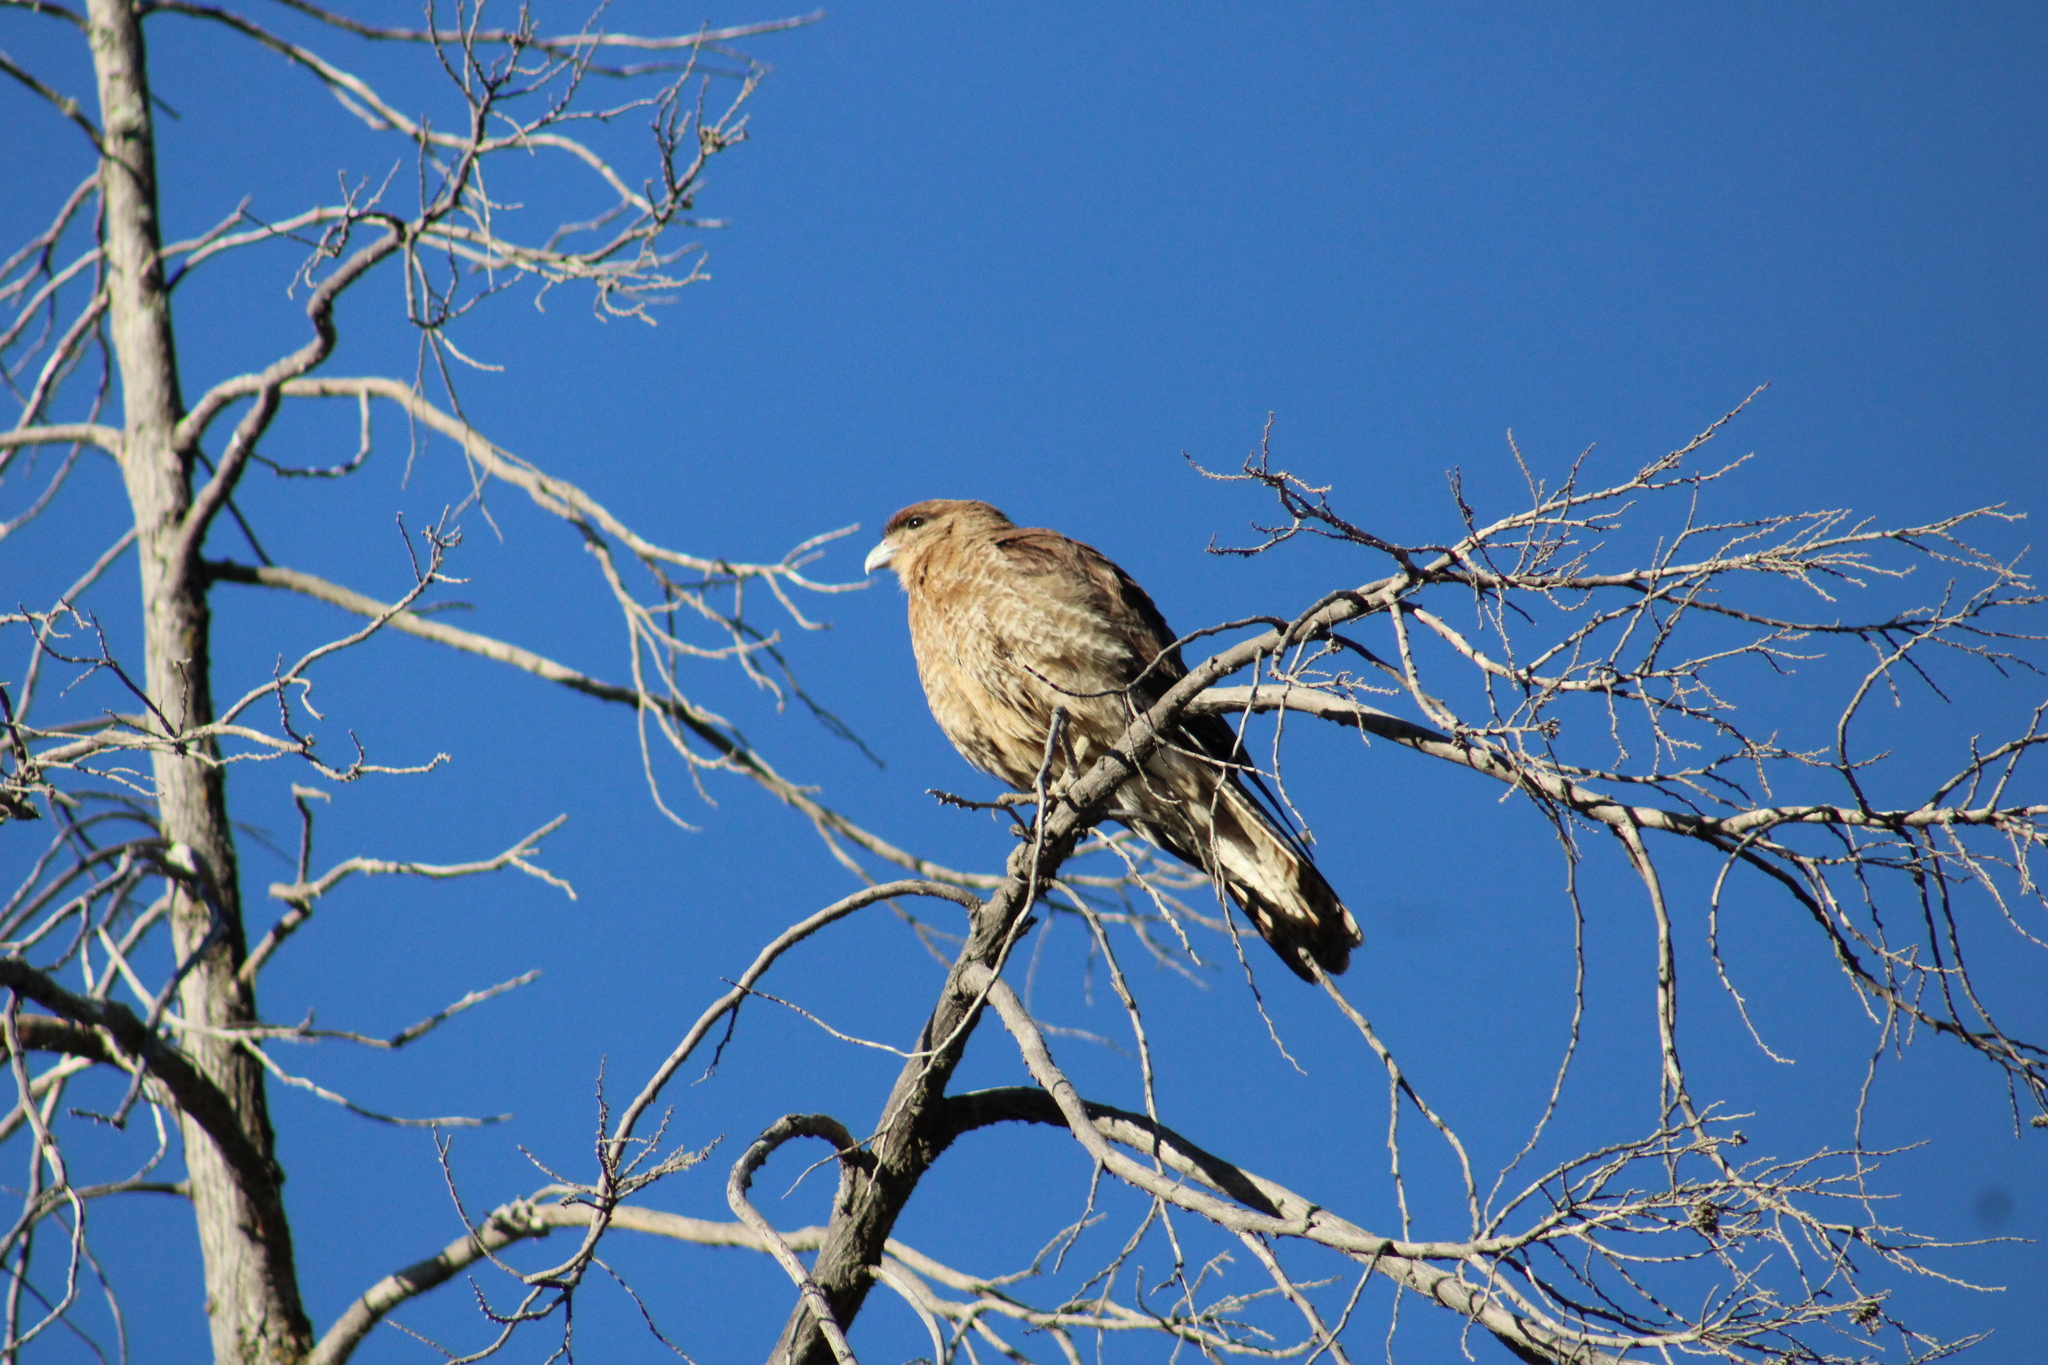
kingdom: Animalia
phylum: Chordata
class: Aves
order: Falconiformes
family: Falconidae
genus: Daptrius
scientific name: Daptrius
